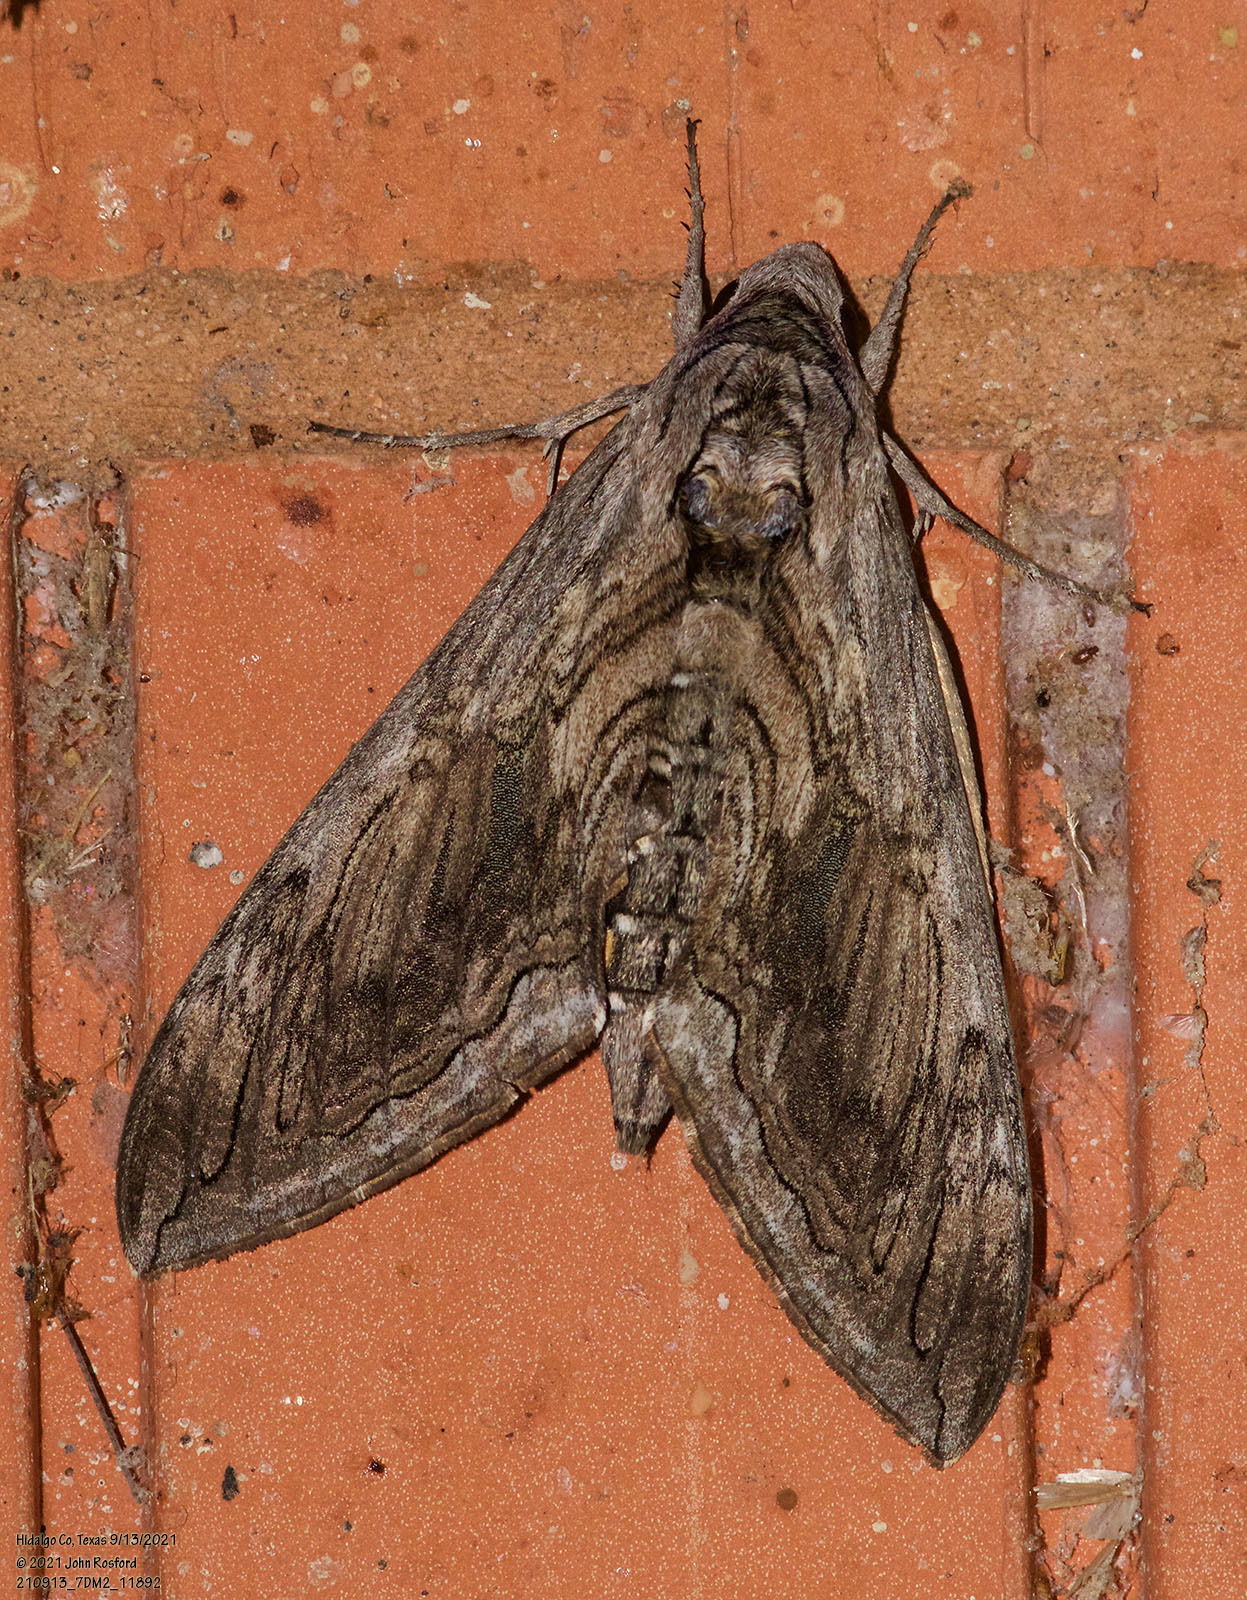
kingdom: Animalia
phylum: Arthropoda
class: Insecta
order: Lepidoptera
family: Sphingidae
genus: Manduca
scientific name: Manduca quinquemaculatus
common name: Five-spotted hawk-moth
